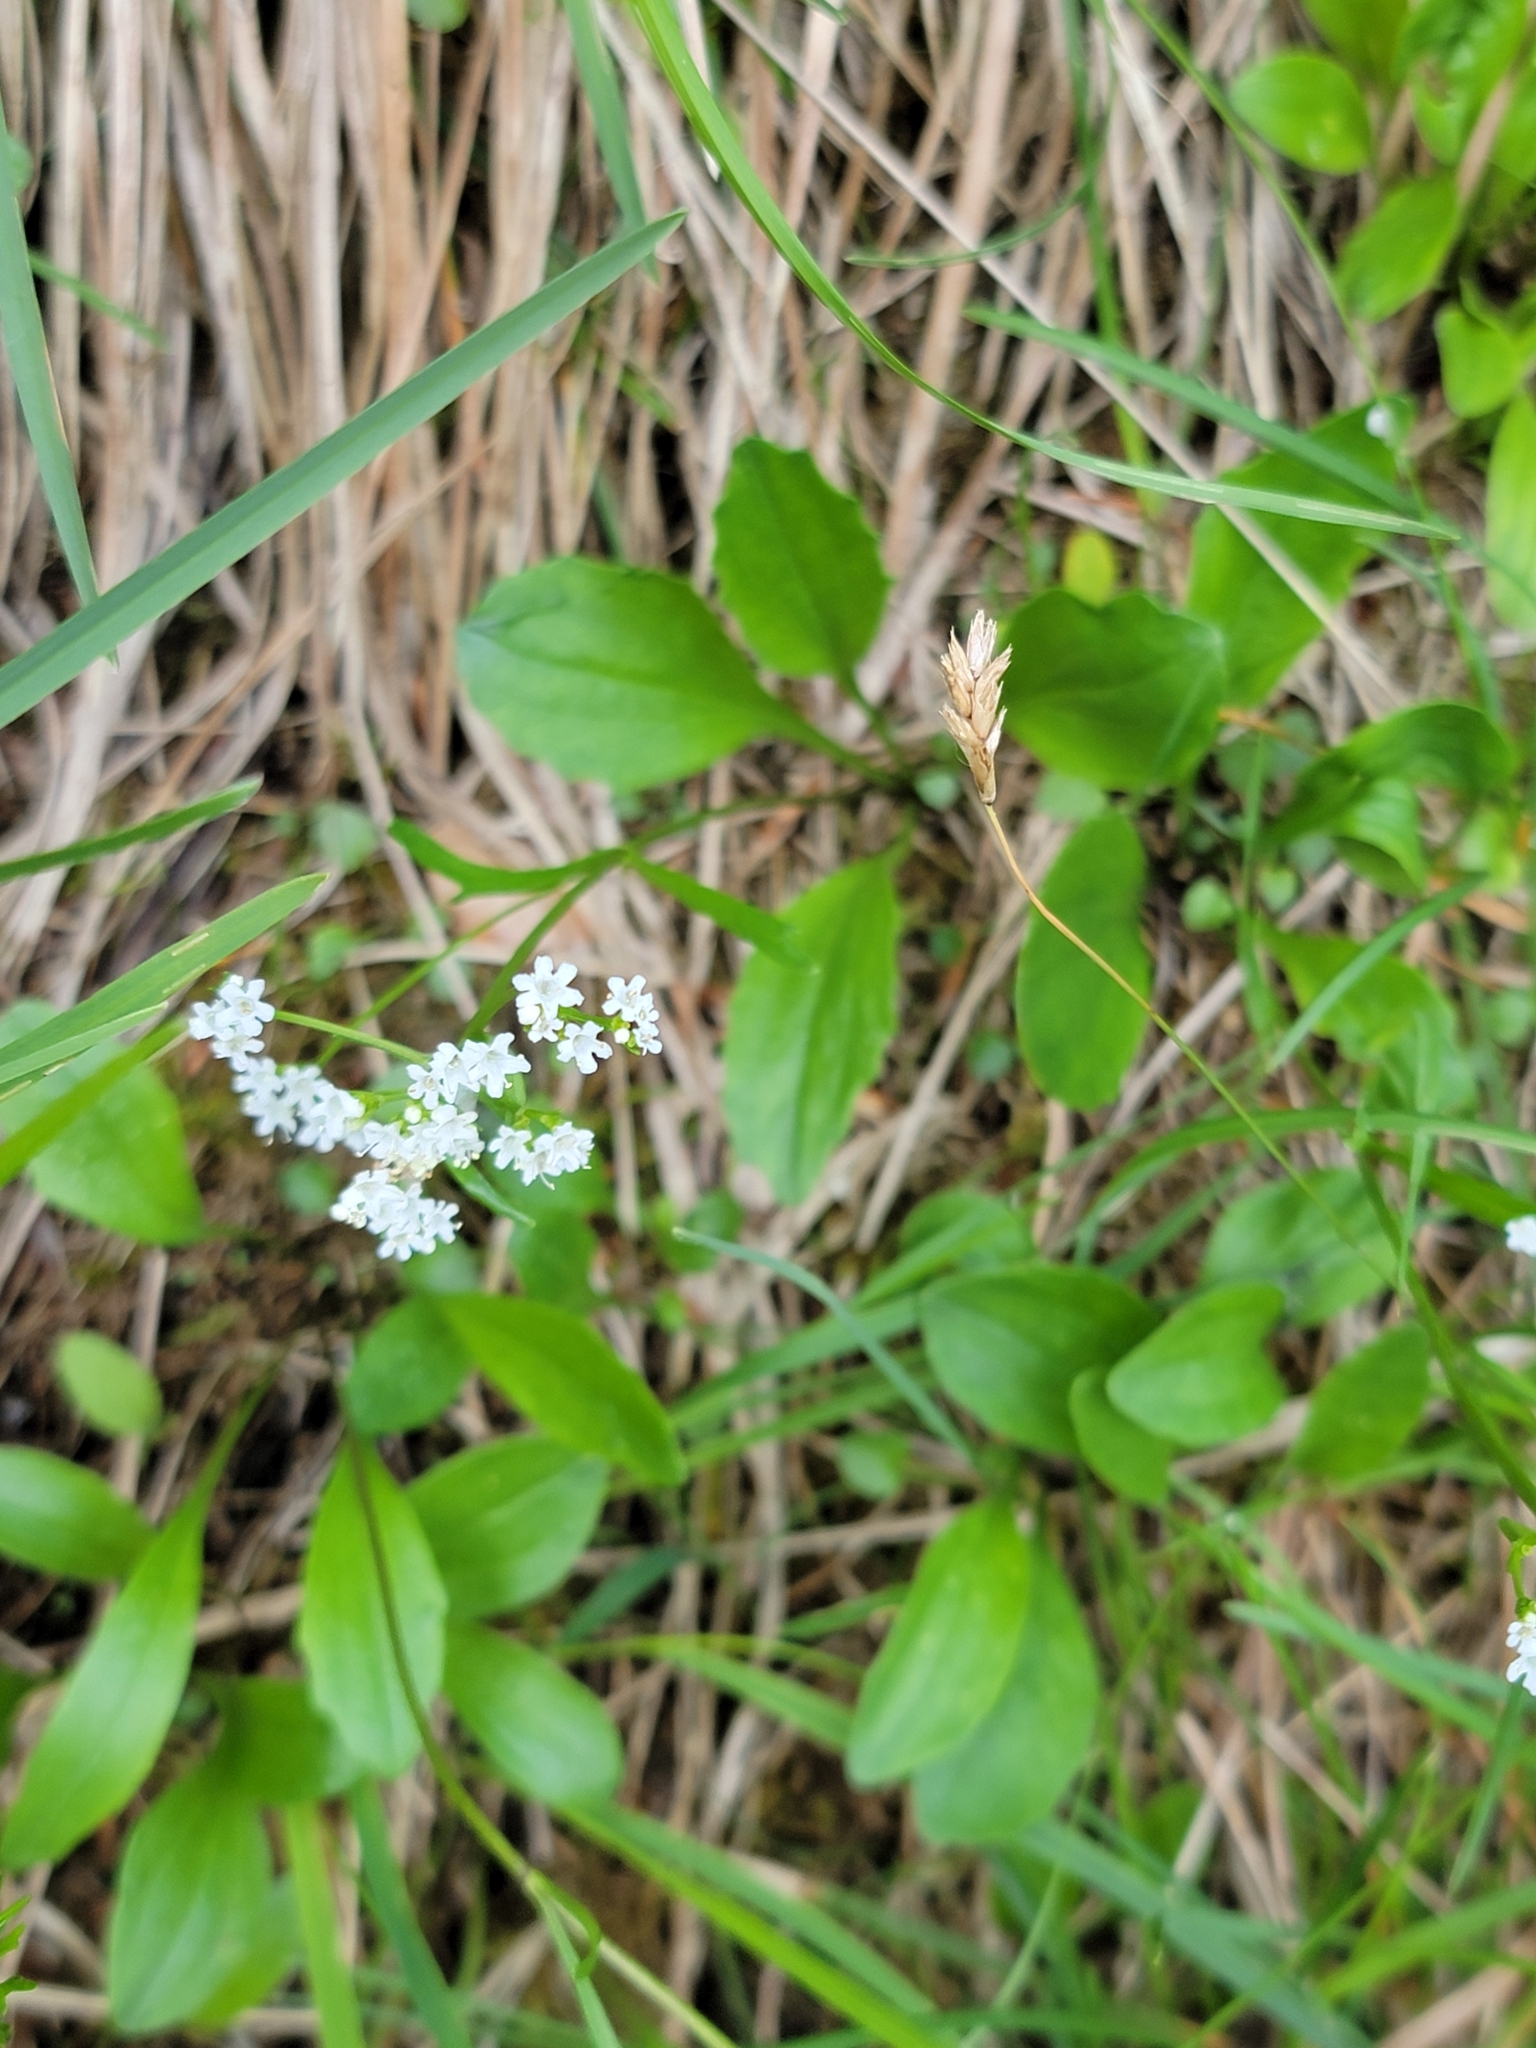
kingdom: Plantae
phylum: Tracheophyta
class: Magnoliopsida
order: Dipsacales
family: Caprifoliaceae
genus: Valeriana
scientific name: Valeriana saxatilis
